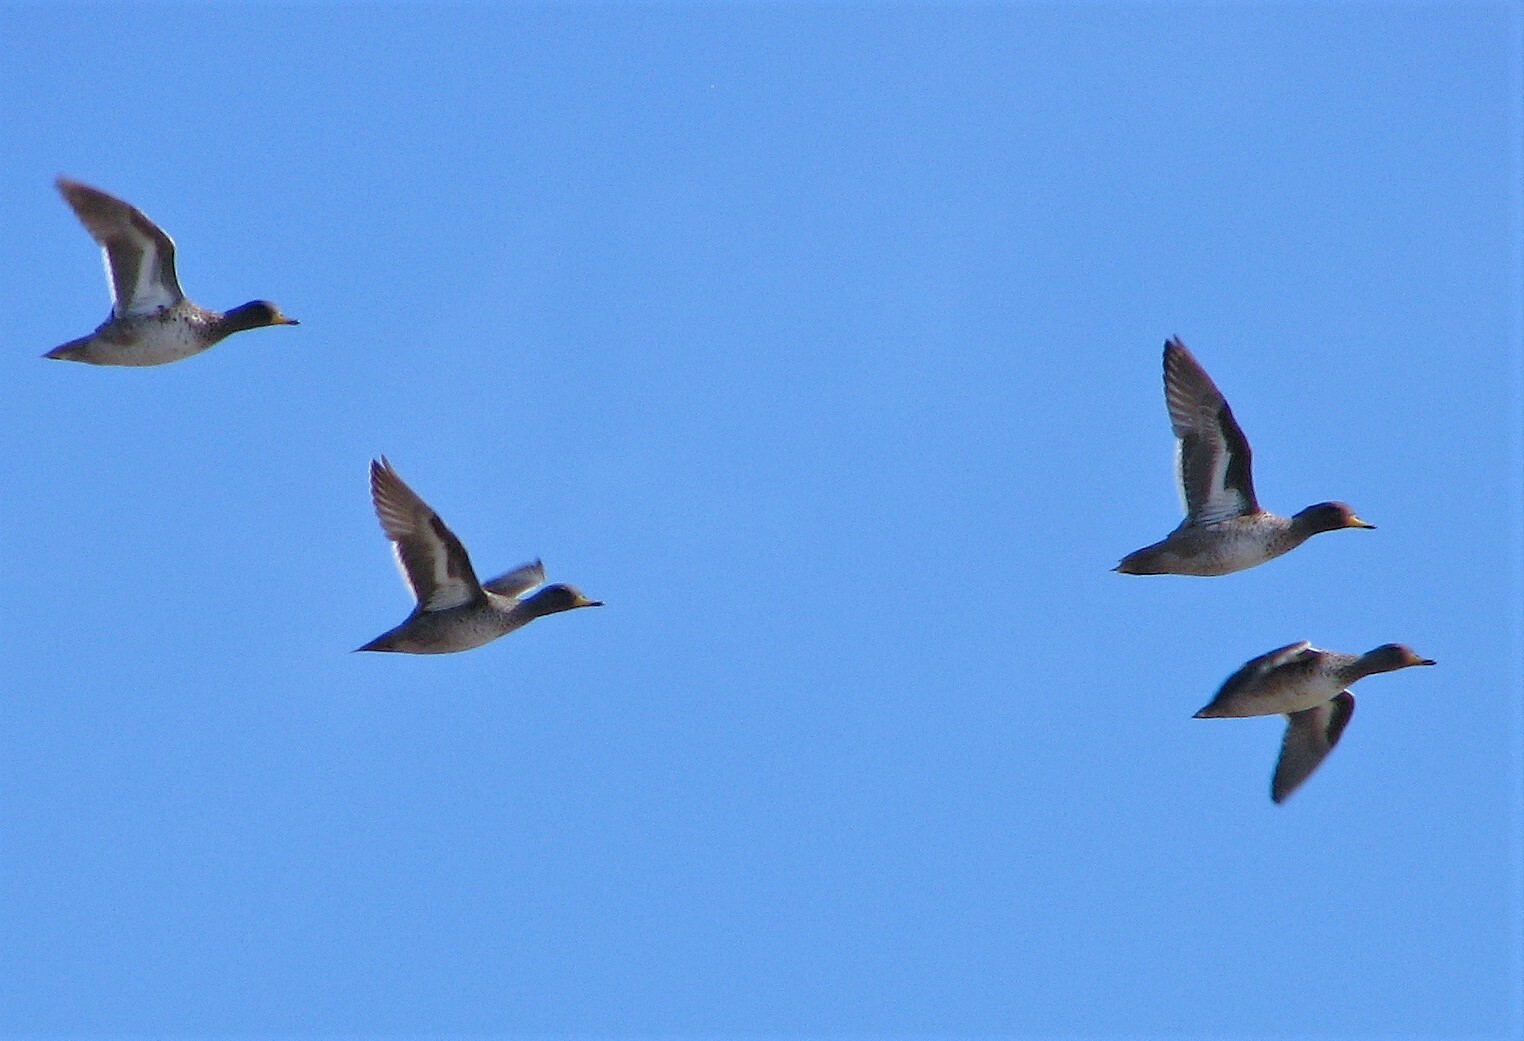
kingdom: Animalia
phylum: Chordata
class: Aves
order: Anseriformes
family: Anatidae
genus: Anas
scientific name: Anas flavirostris
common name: Yellow-billed teal
